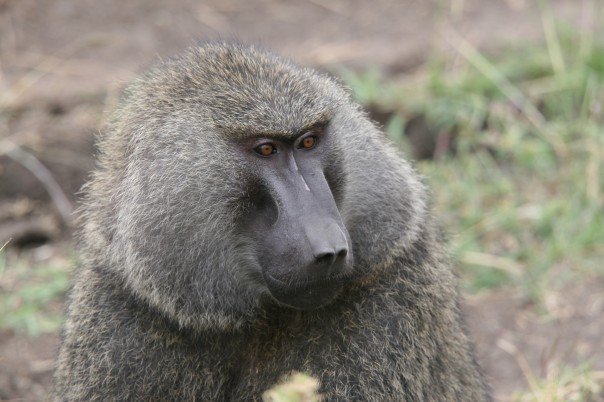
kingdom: Animalia
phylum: Chordata
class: Mammalia
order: Primates
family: Cercopithecidae
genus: Papio
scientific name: Papio anubis
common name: Olive baboon
